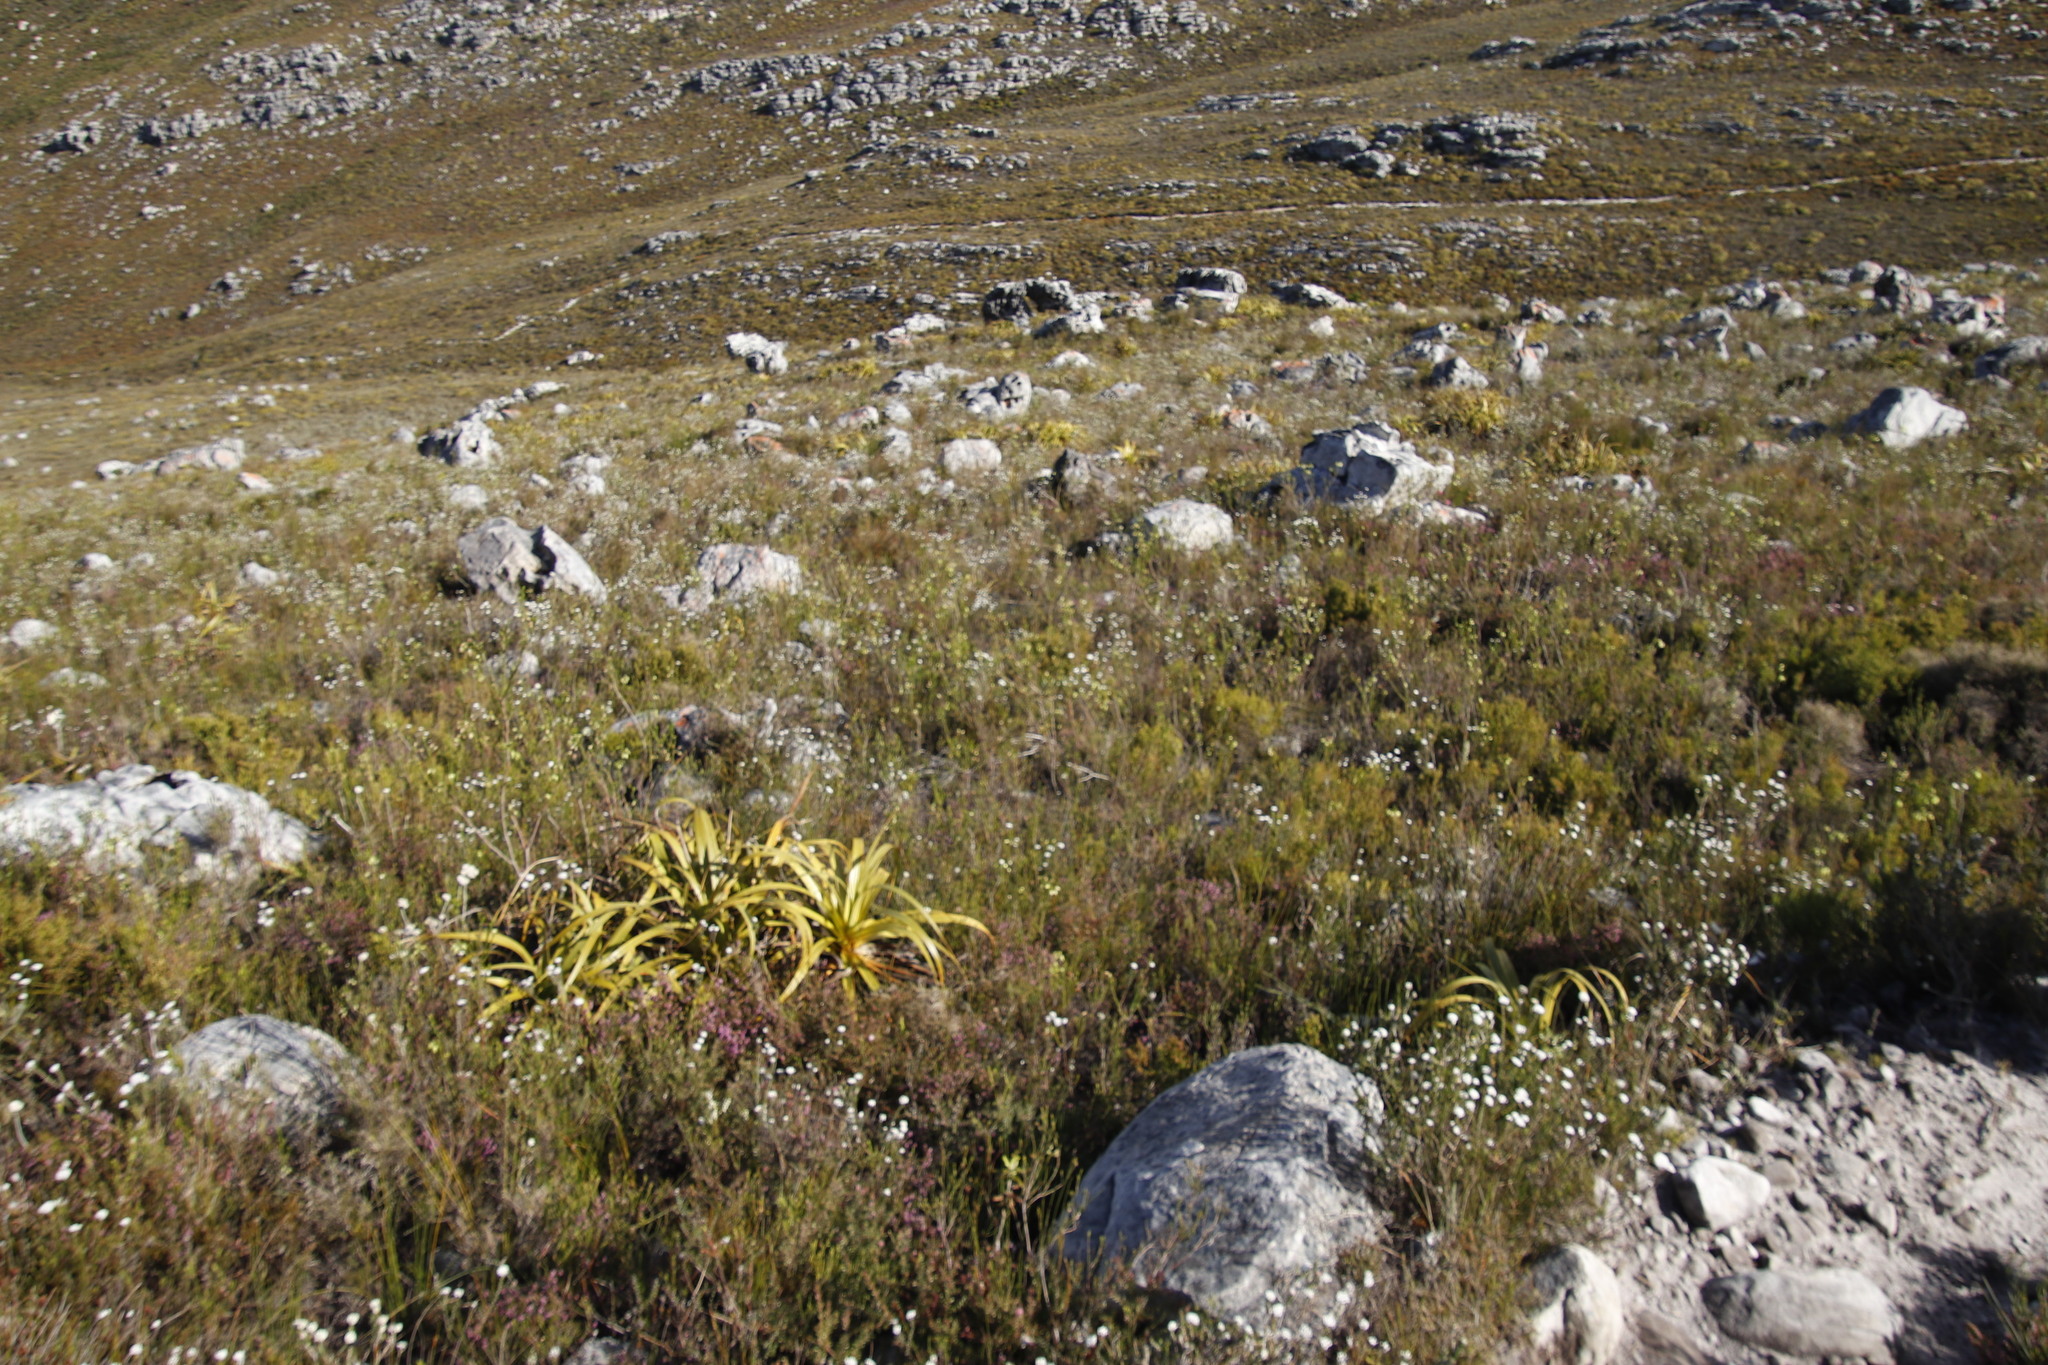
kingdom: Plantae
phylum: Tracheophyta
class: Magnoliopsida
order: Asterales
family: Asteraceae
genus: Anaxeton
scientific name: Anaxeton arborescens
